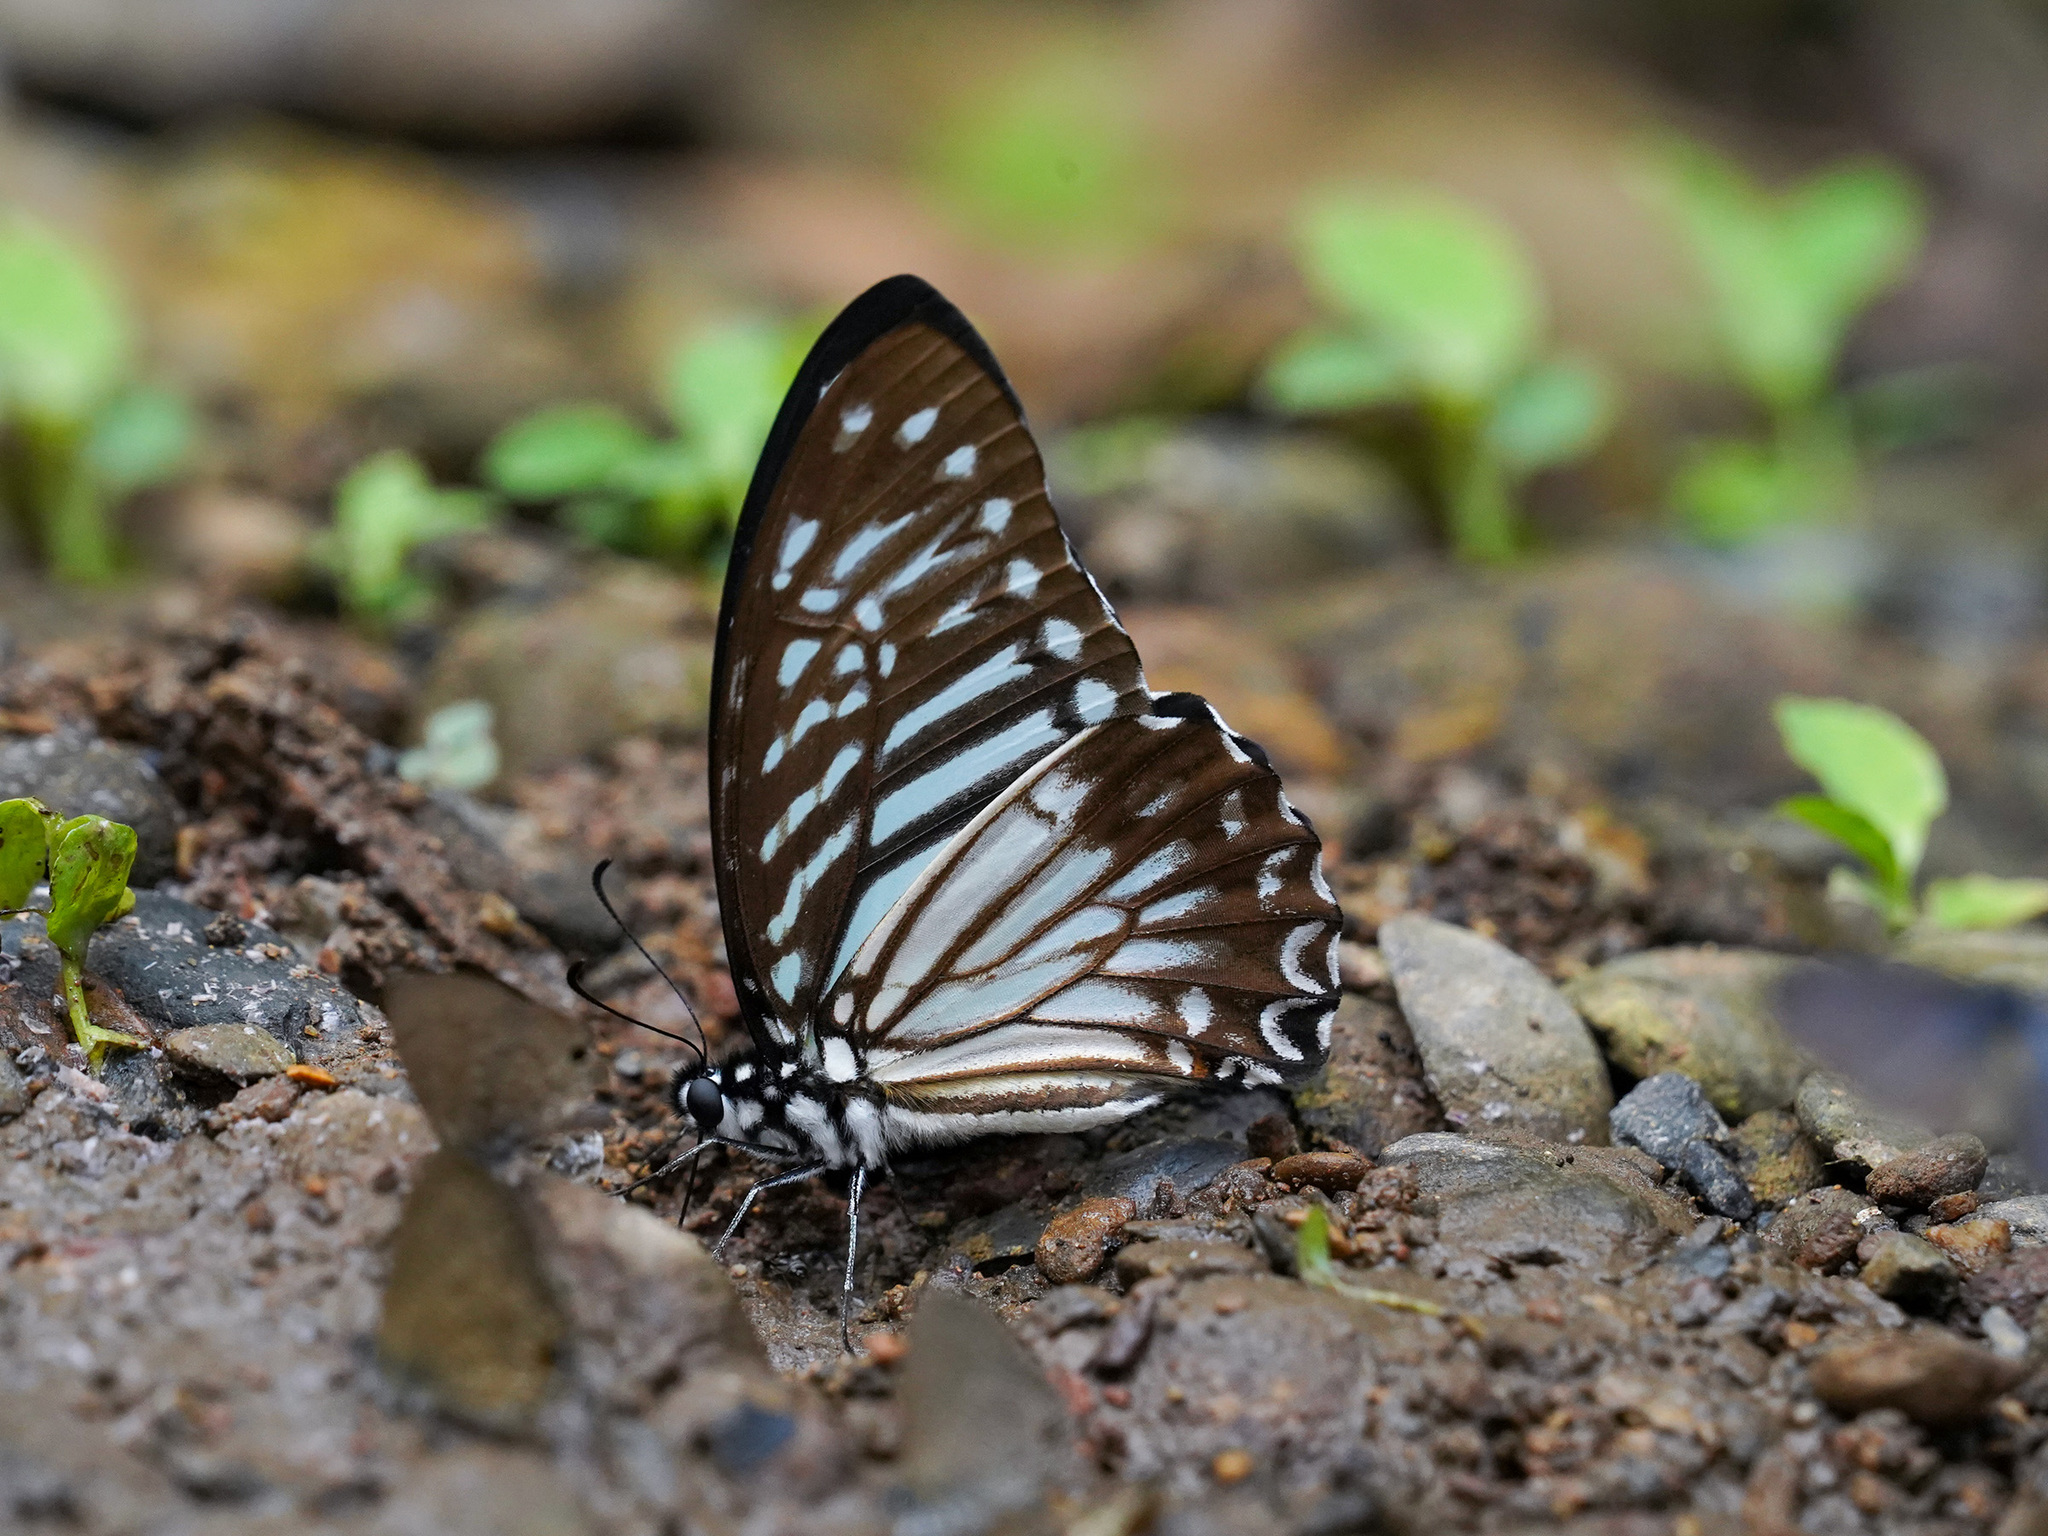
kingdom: Animalia
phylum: Arthropoda
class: Insecta
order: Lepidoptera
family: Papilionidae
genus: Graphium
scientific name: Graphium macareus
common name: Lesser zebra
